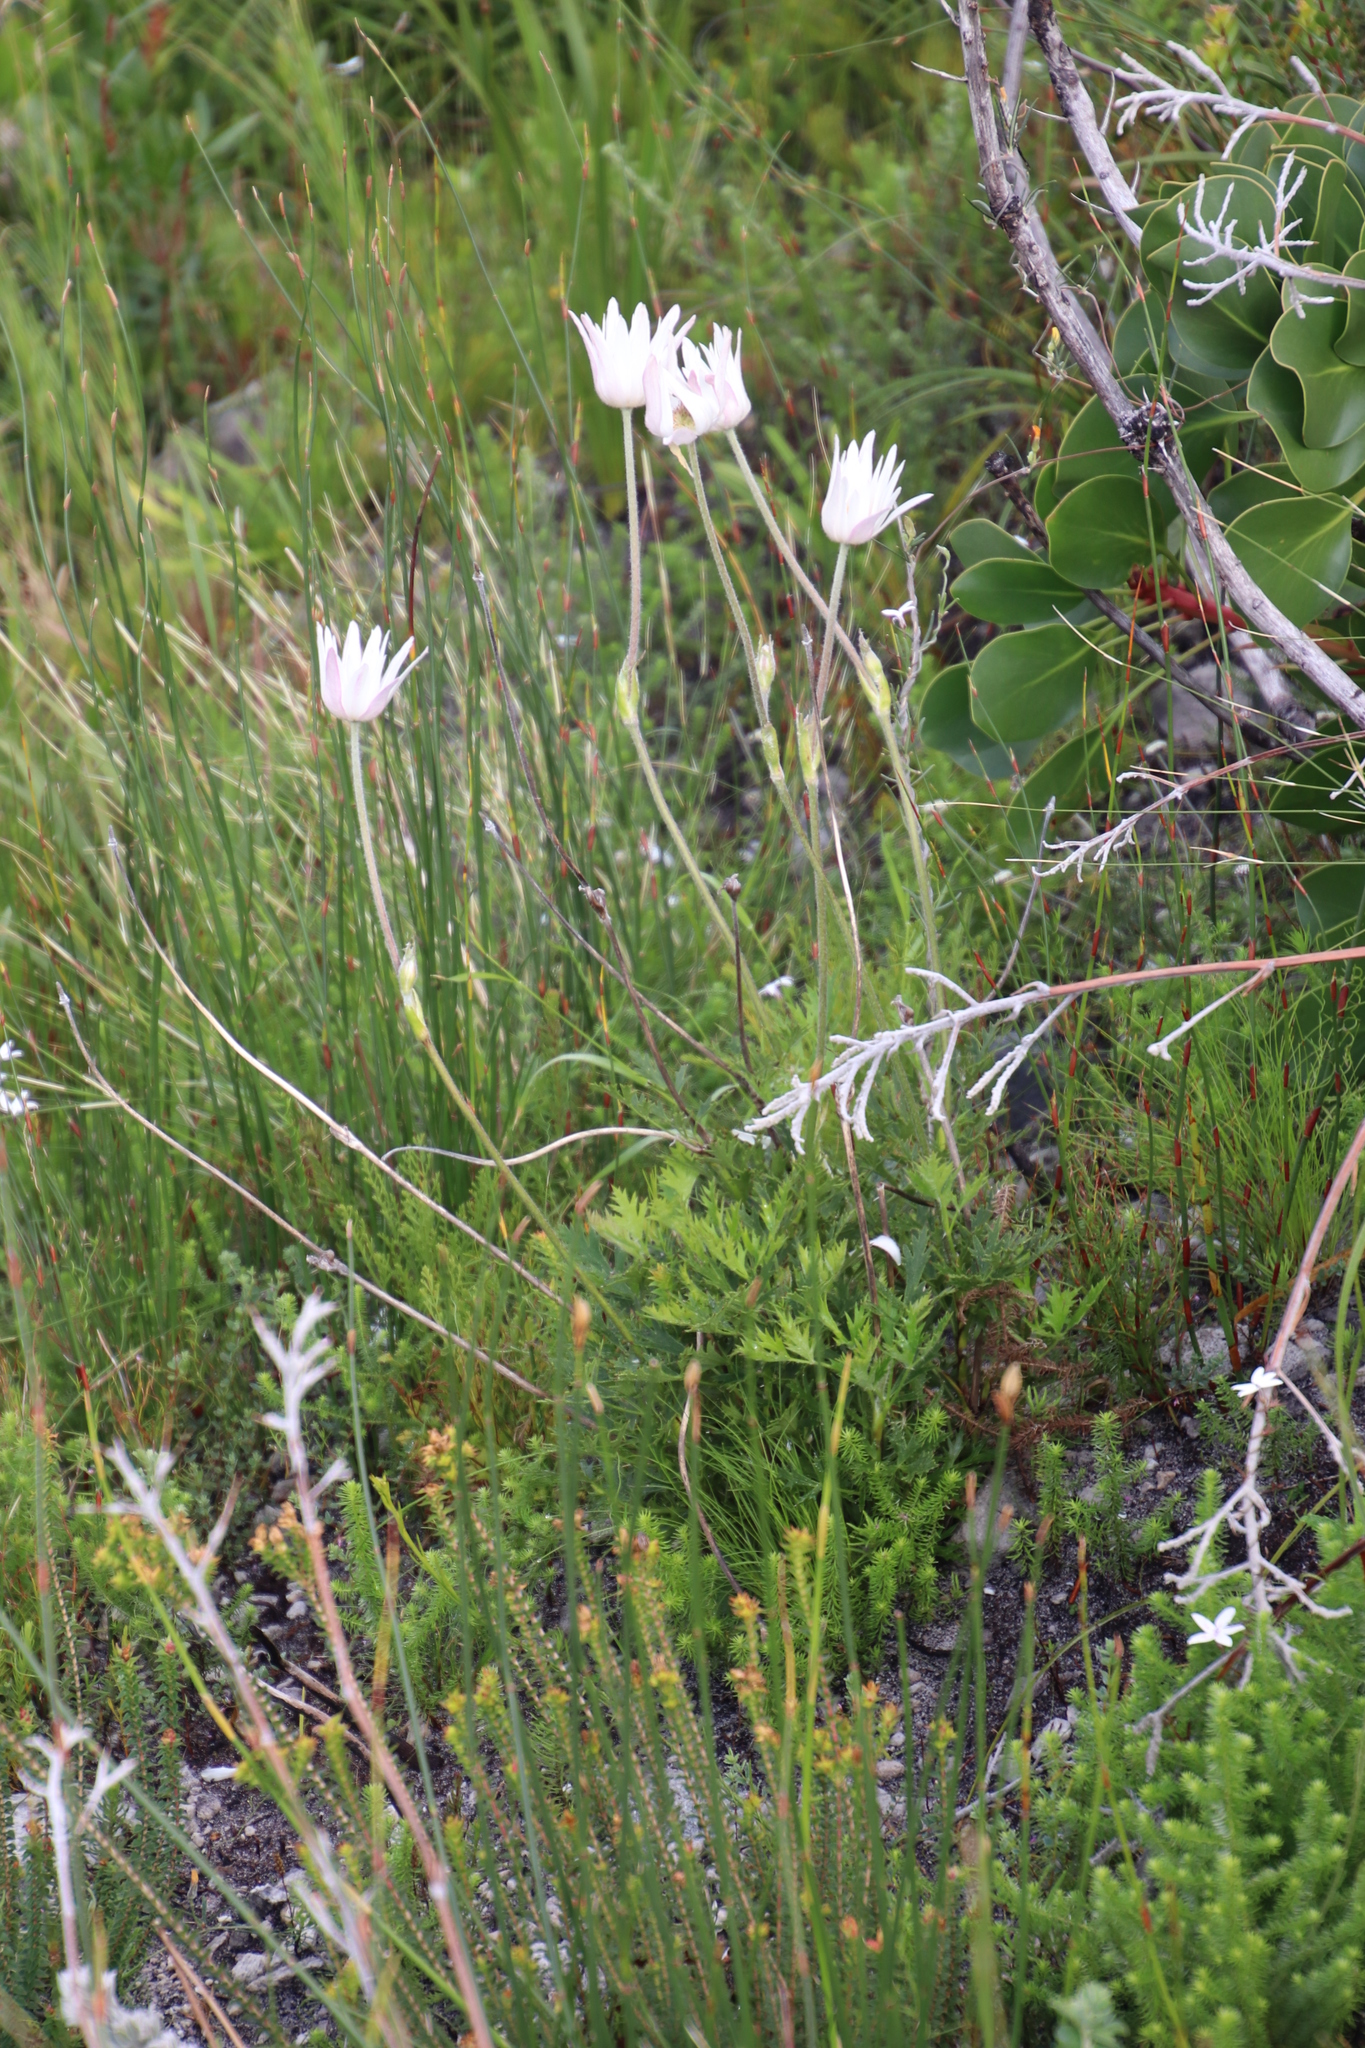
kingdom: Plantae
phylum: Tracheophyta
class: Magnoliopsida
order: Ranunculales
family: Ranunculaceae
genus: Knowltonia
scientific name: Knowltonia tenuifolia
